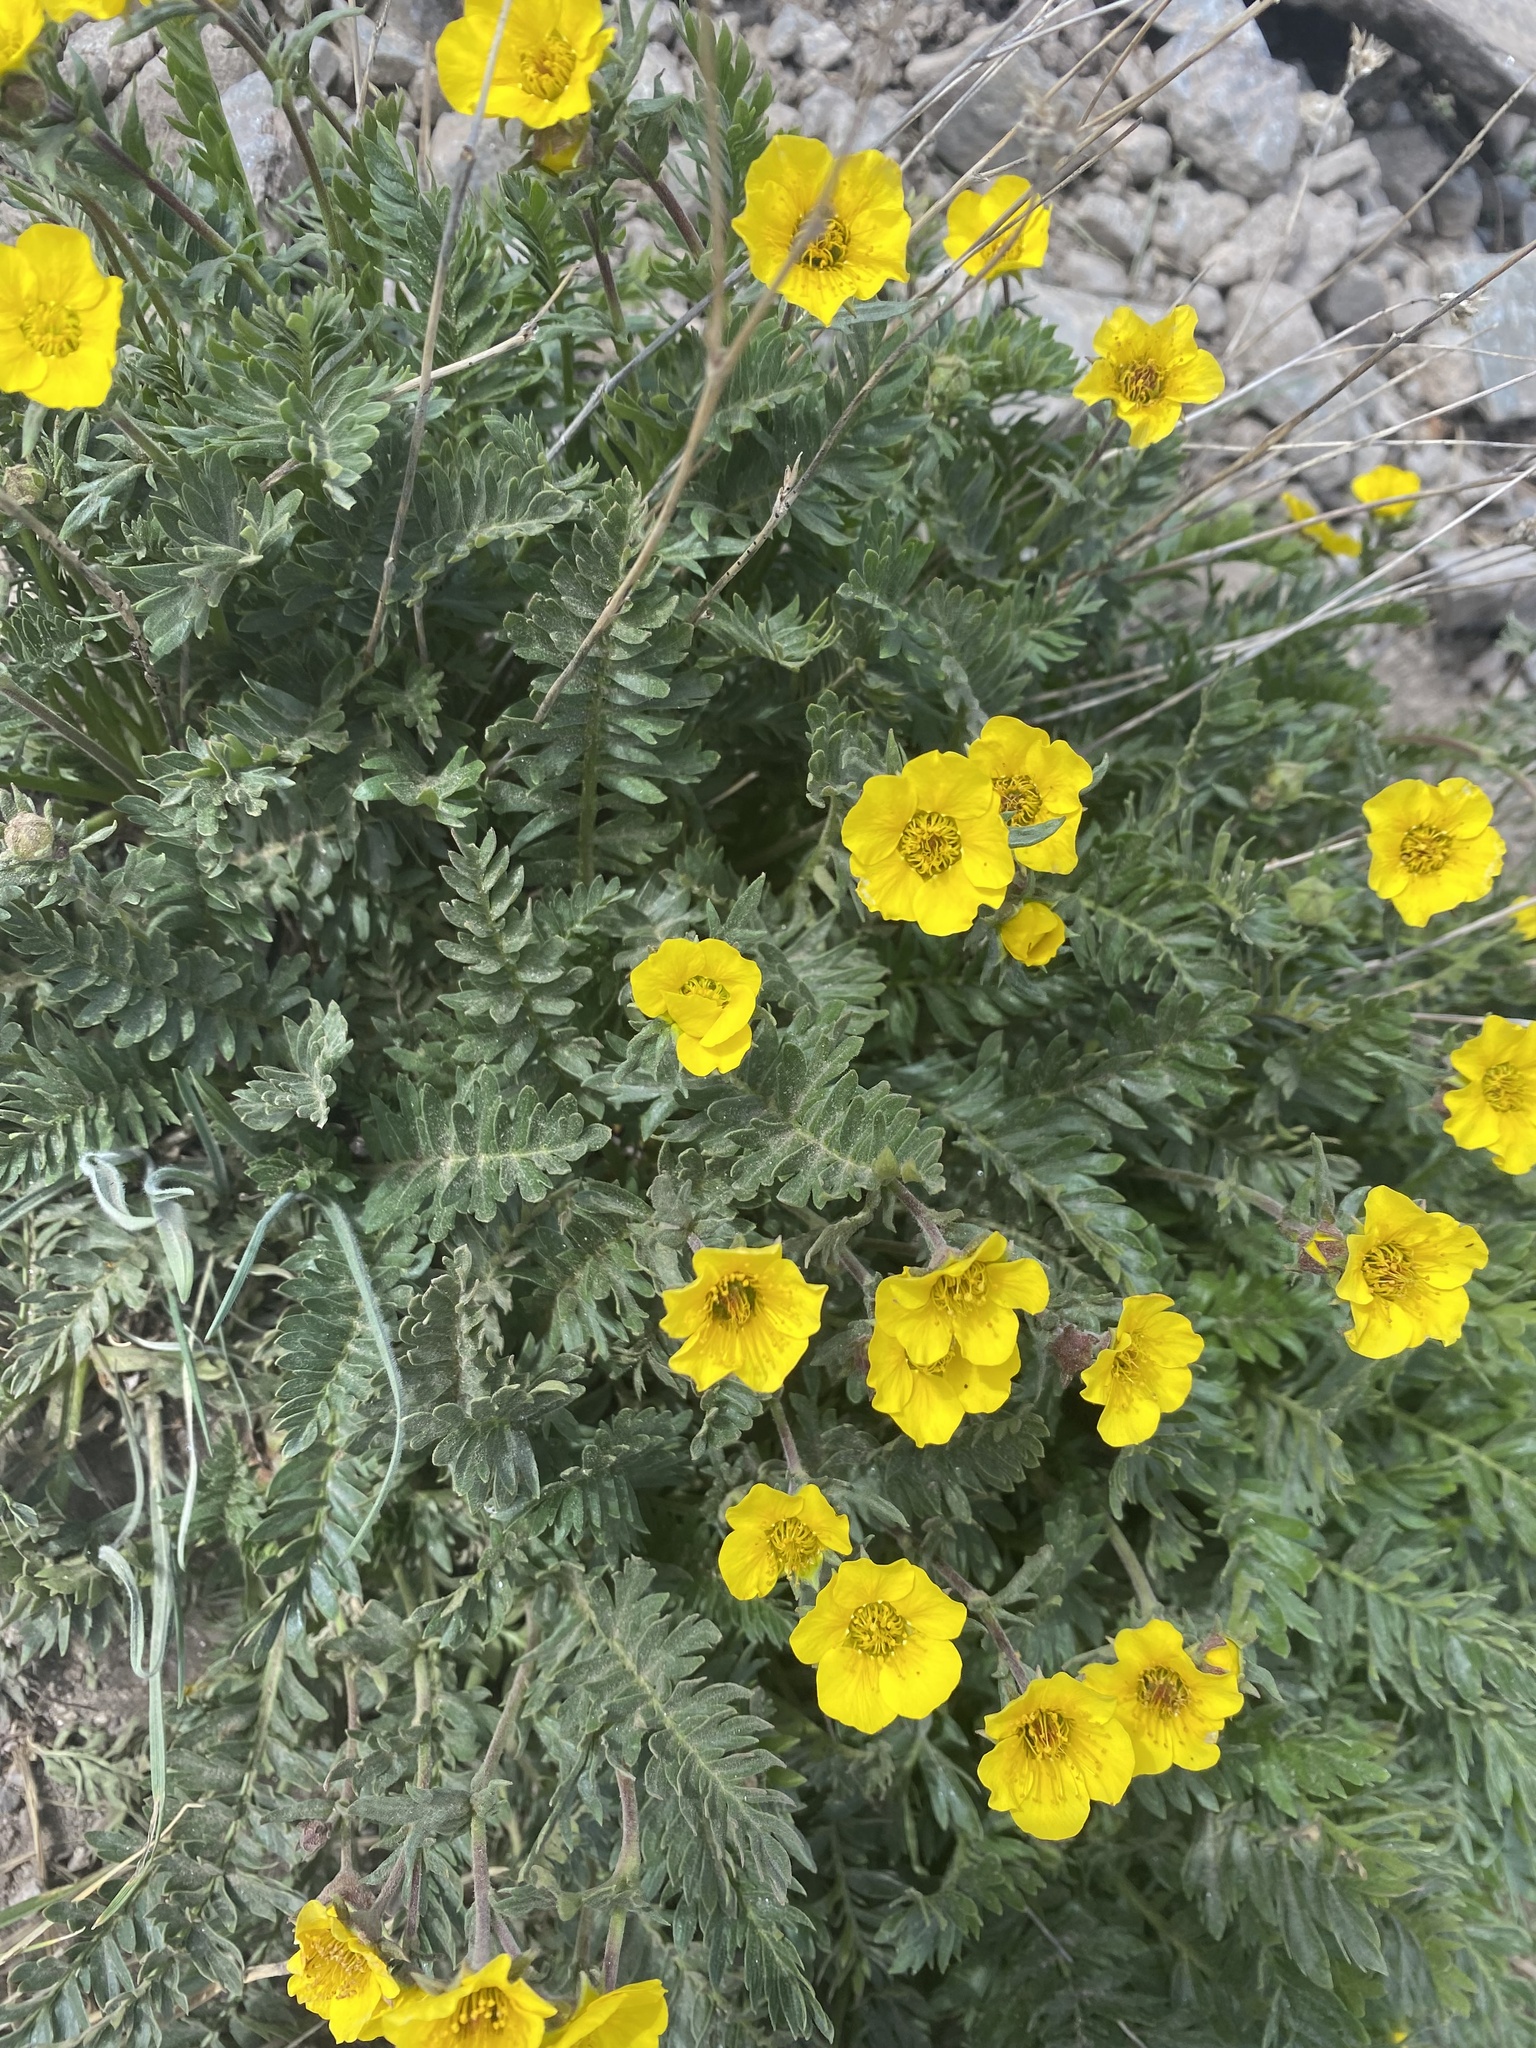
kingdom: Plantae
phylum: Tracheophyta
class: Magnoliopsida
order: Rosales
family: Rosaceae
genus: Geum
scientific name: Geum rossii
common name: Alpine avens
